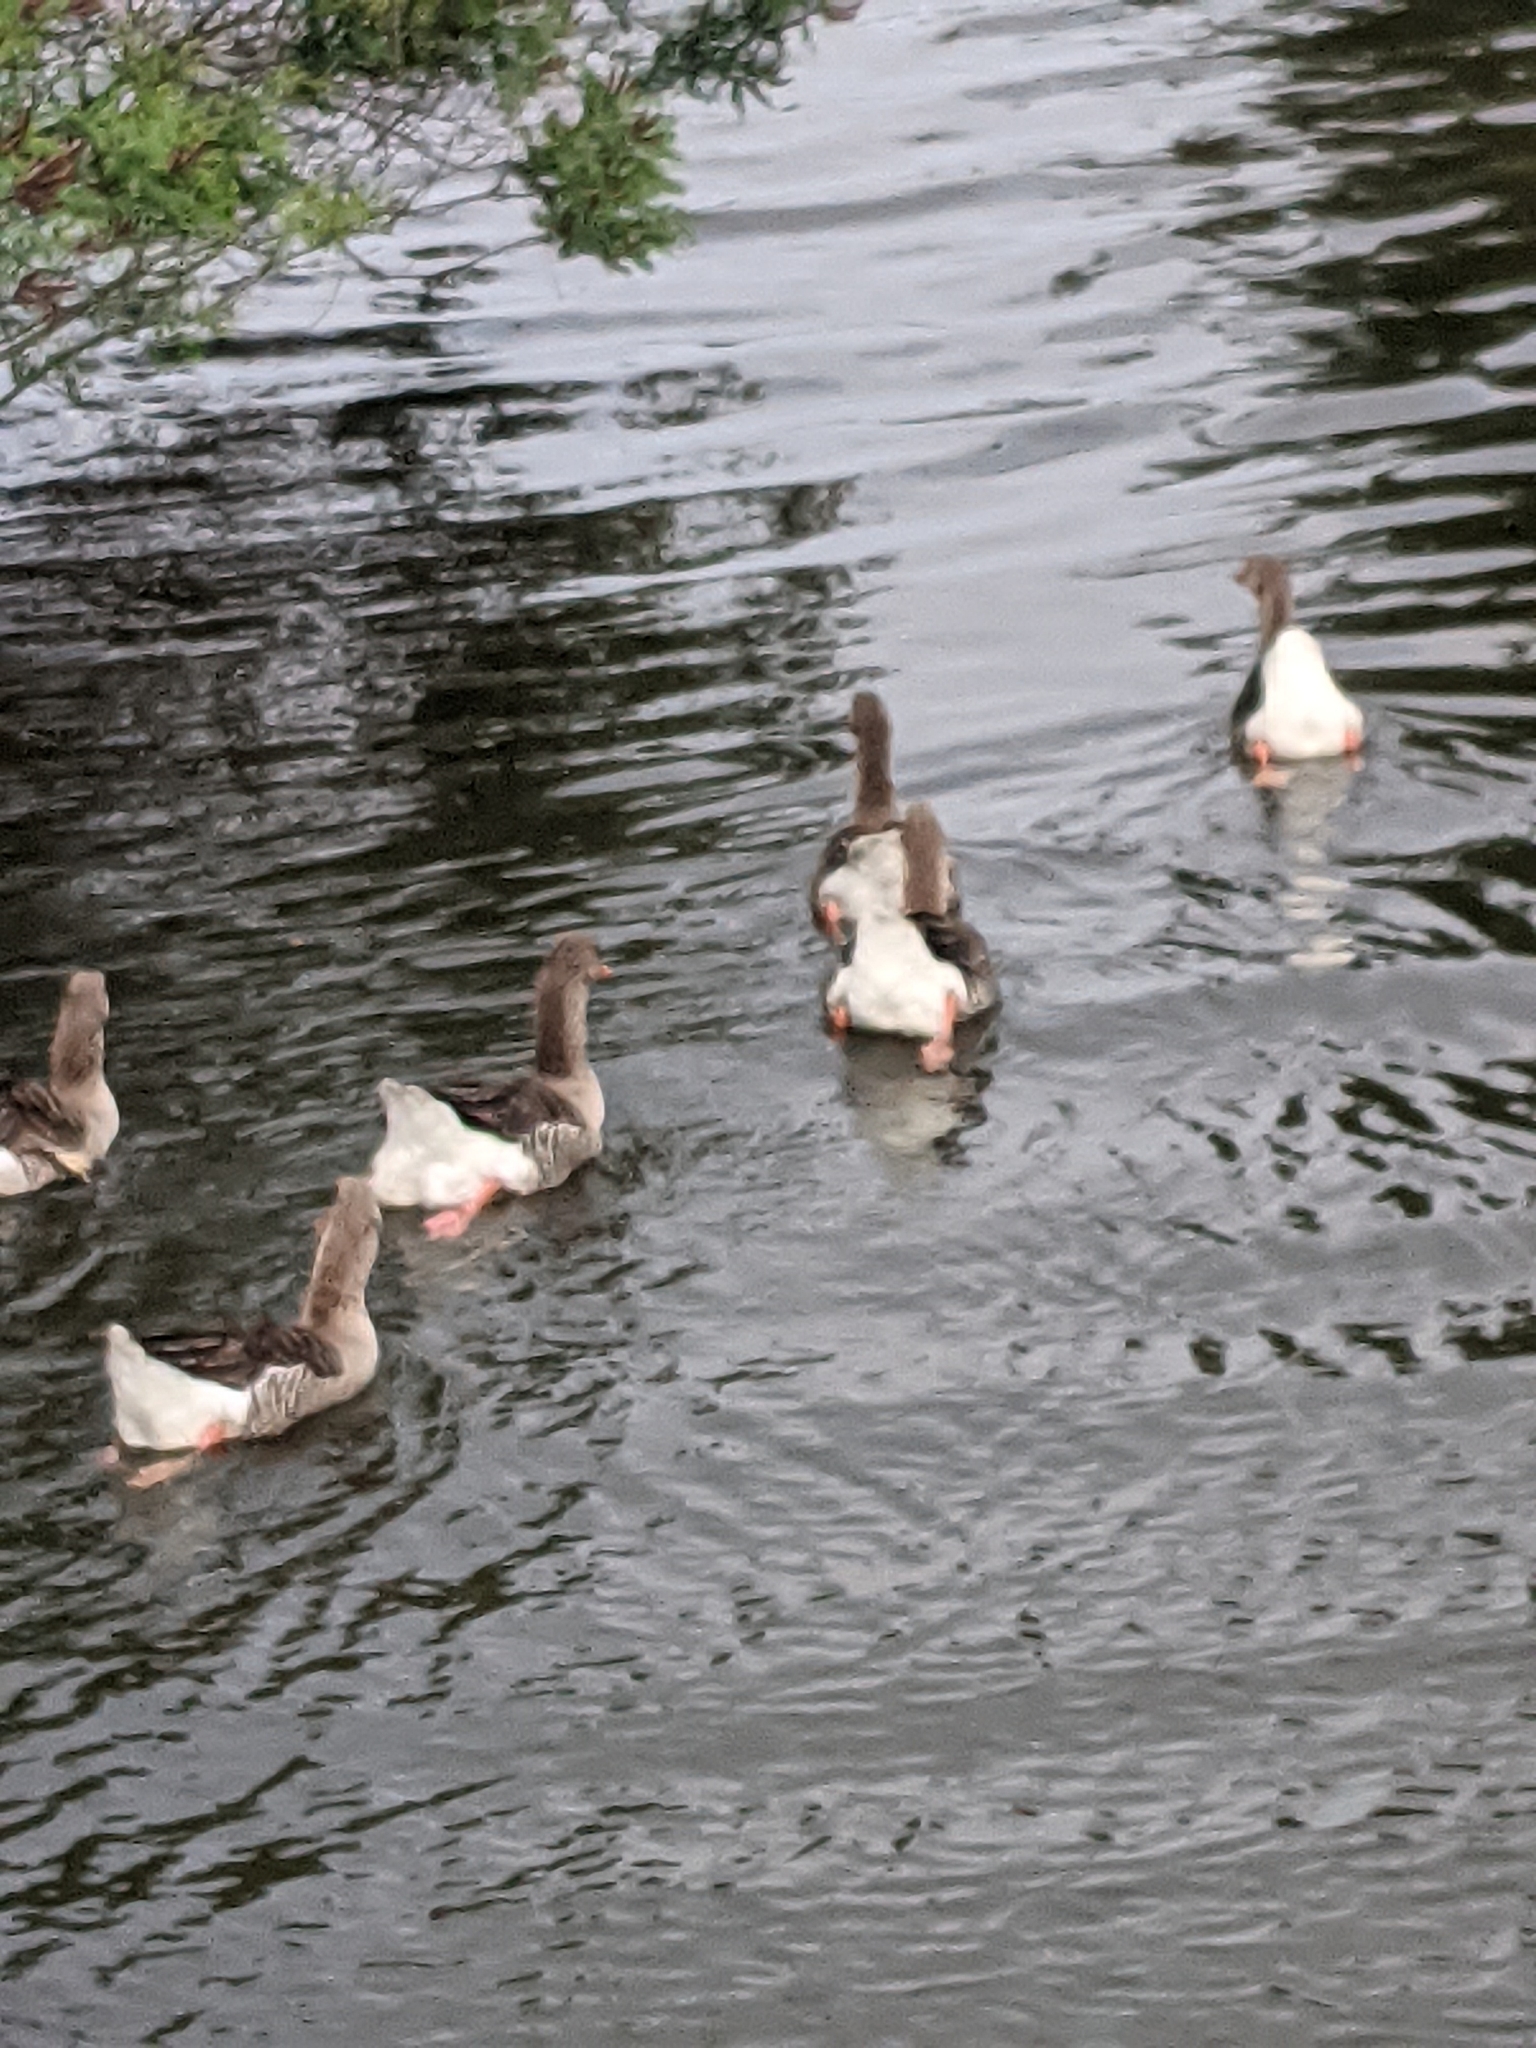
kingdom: Animalia
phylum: Chordata
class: Aves
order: Anseriformes
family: Anatidae
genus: Anser
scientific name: Anser anser
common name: Greylag goose
